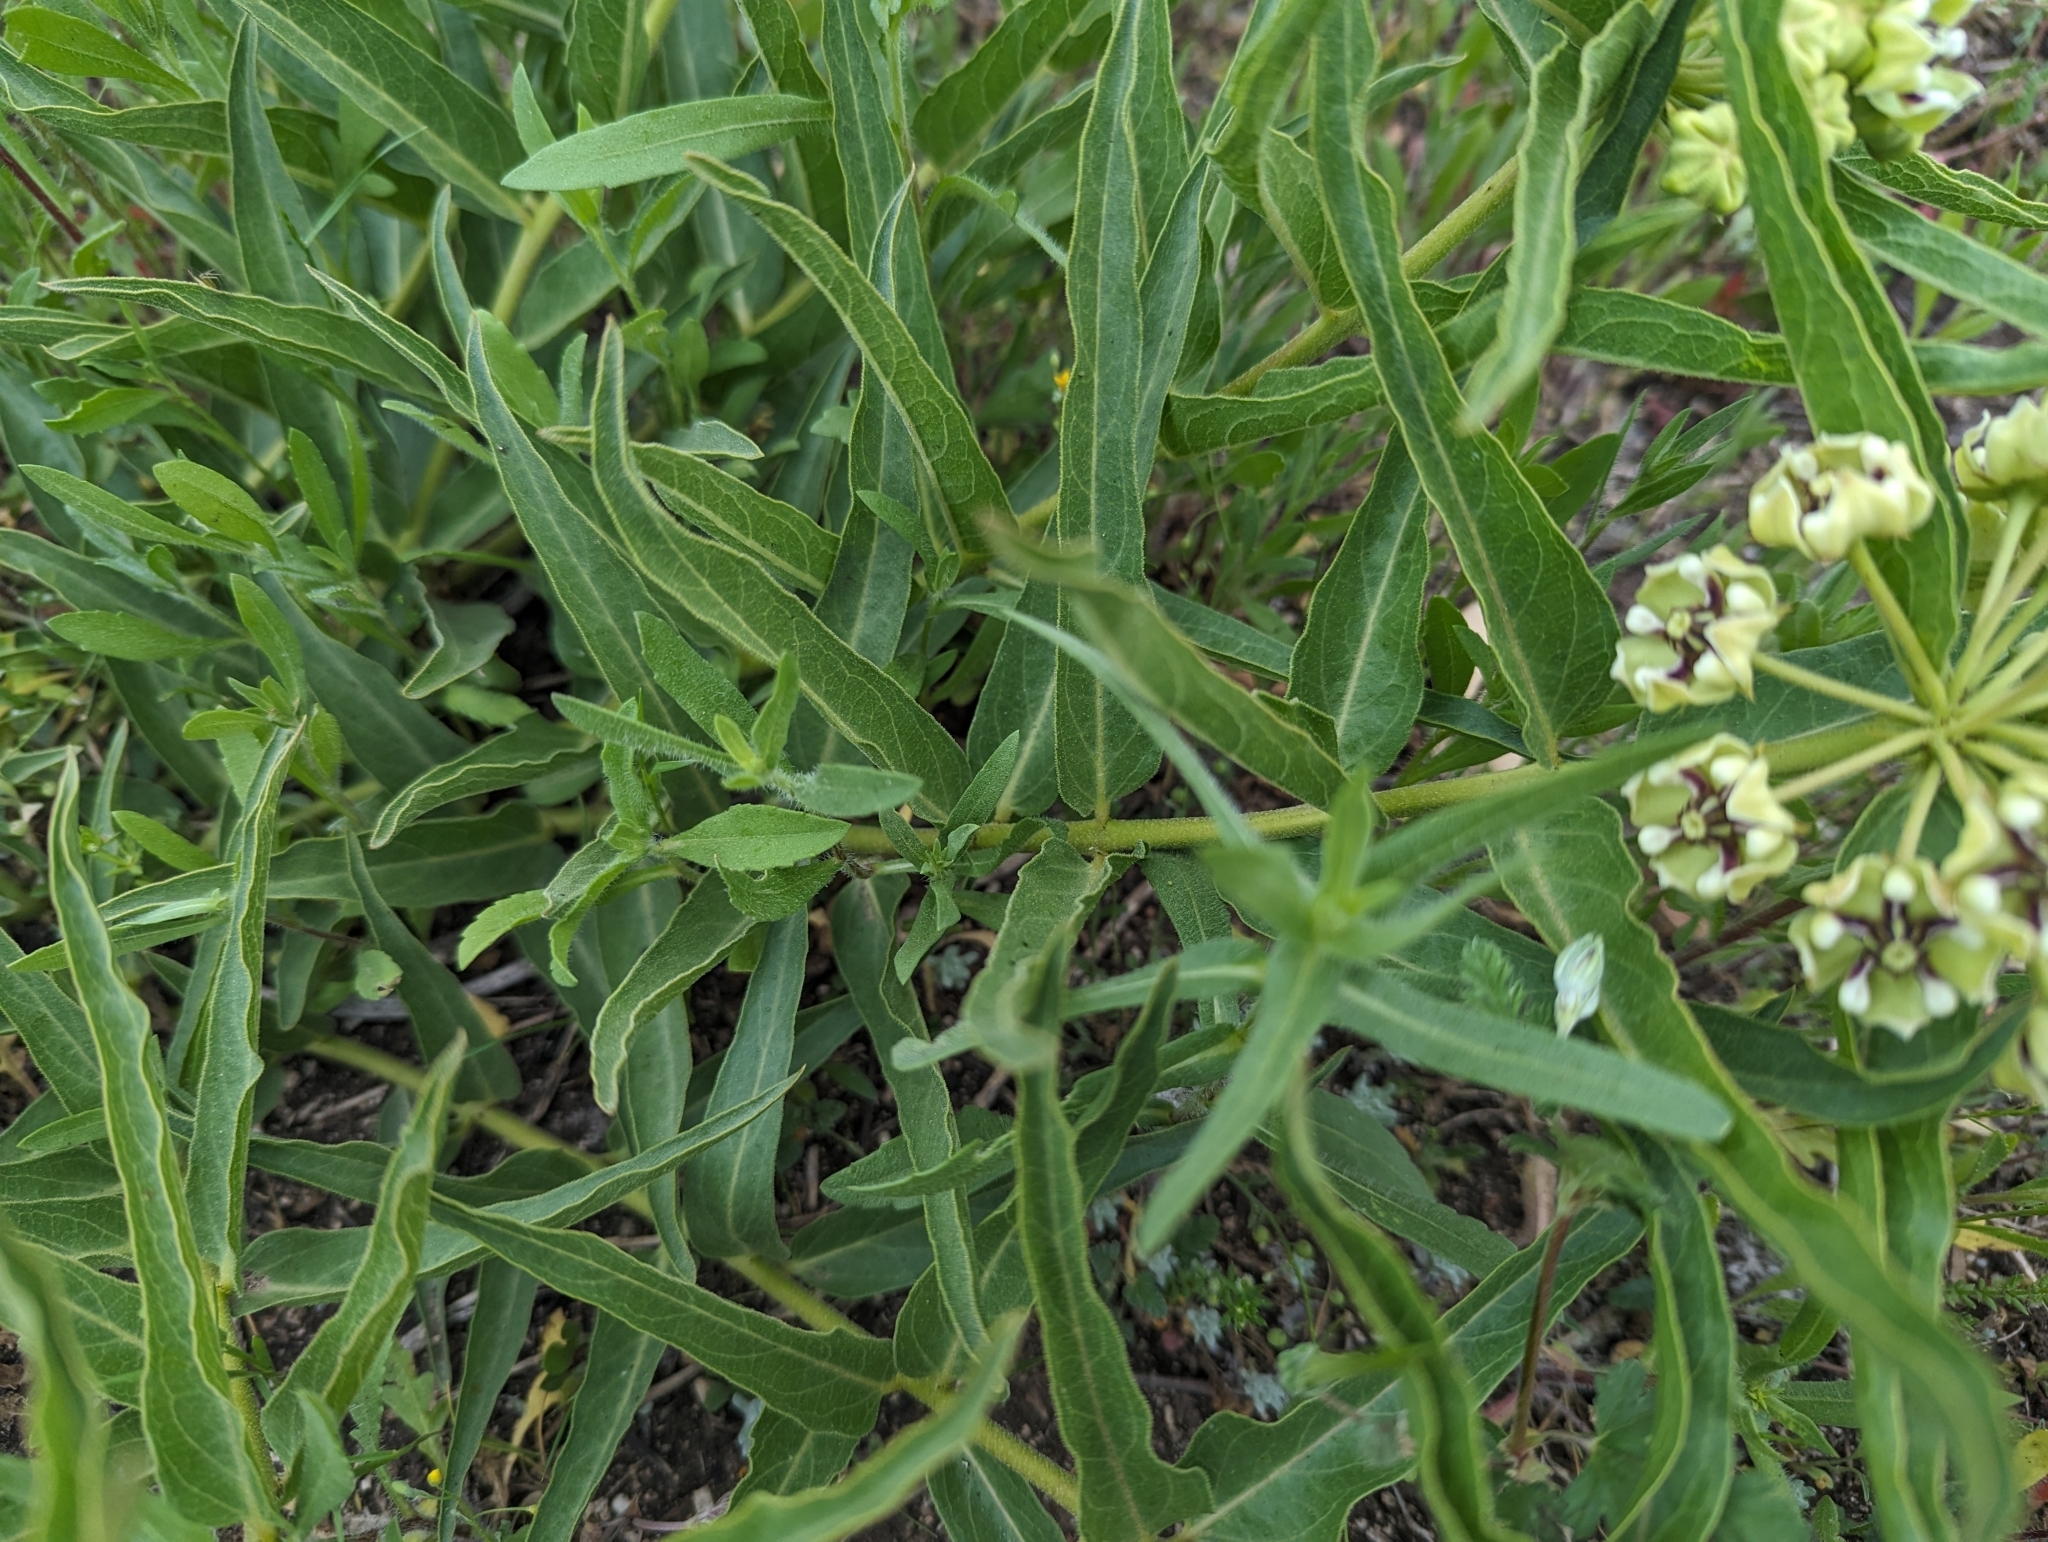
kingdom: Plantae
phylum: Tracheophyta
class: Magnoliopsida
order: Gentianales
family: Apocynaceae
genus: Asclepias
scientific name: Asclepias asperula
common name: Antelope horns
